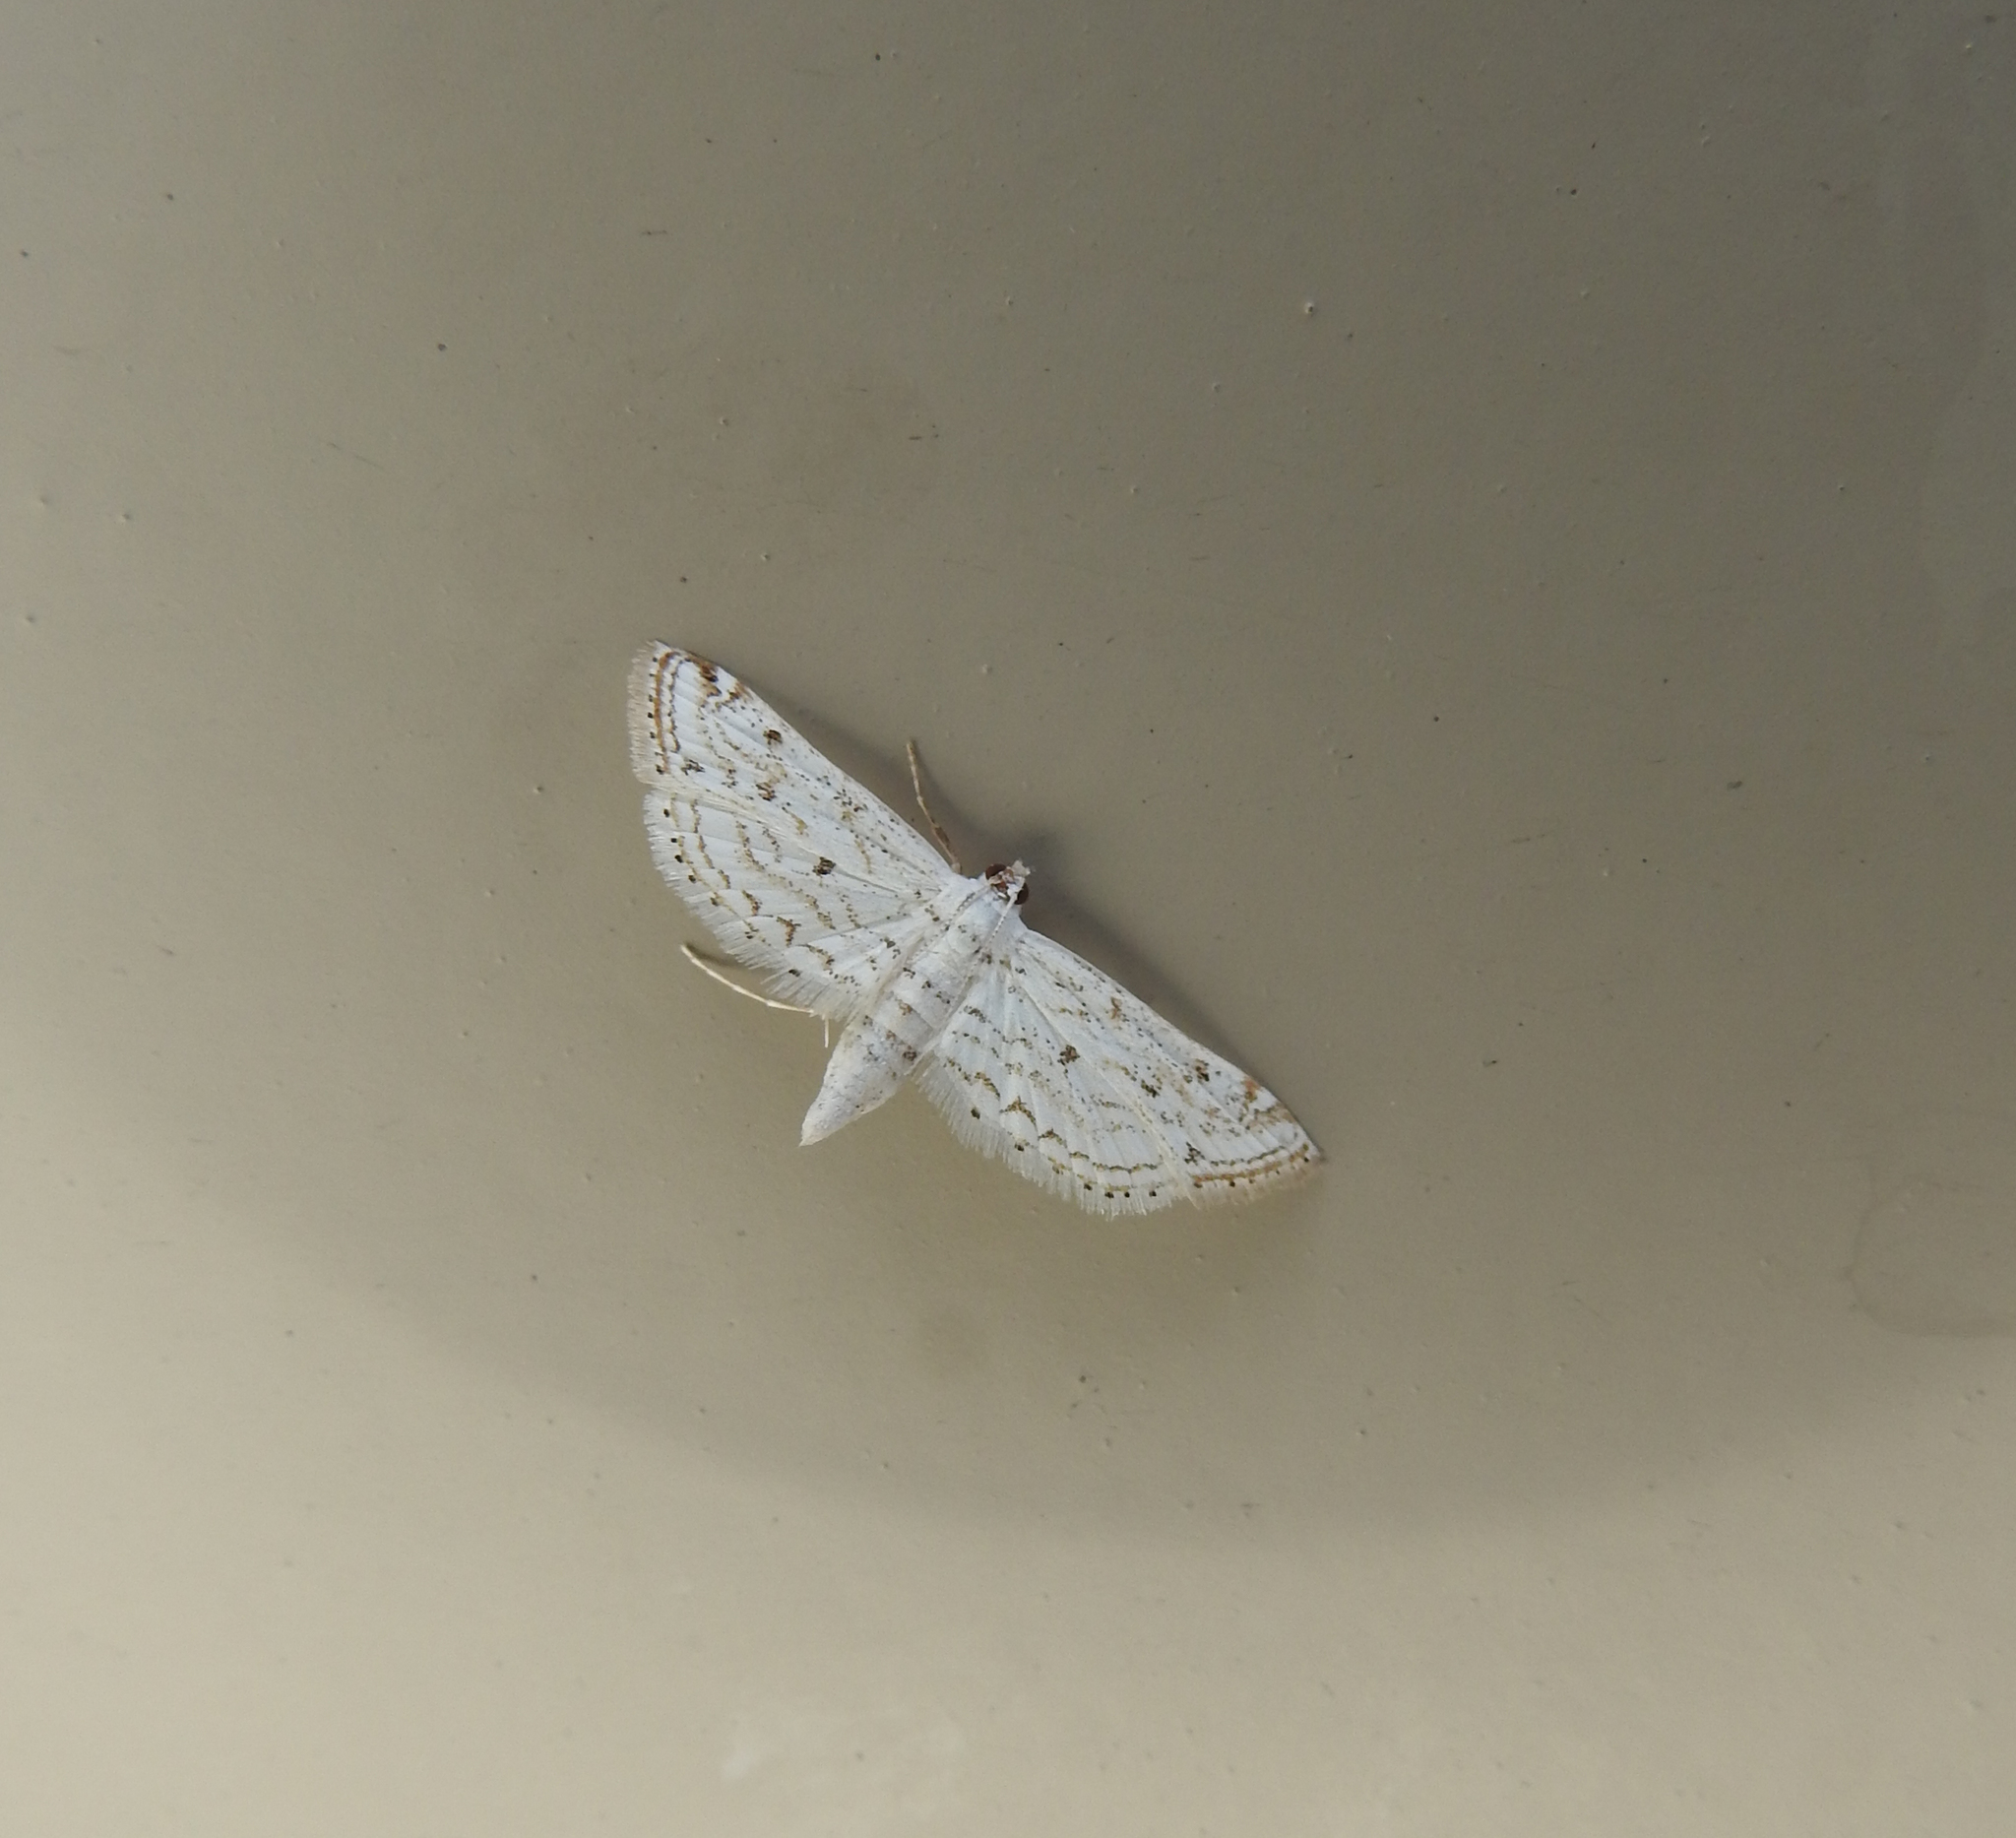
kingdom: Animalia
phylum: Arthropoda
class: Insecta
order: Lepidoptera
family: Crambidae
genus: Parapoynx
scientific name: Parapoynx allionealis
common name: Bladderwort casemaker
